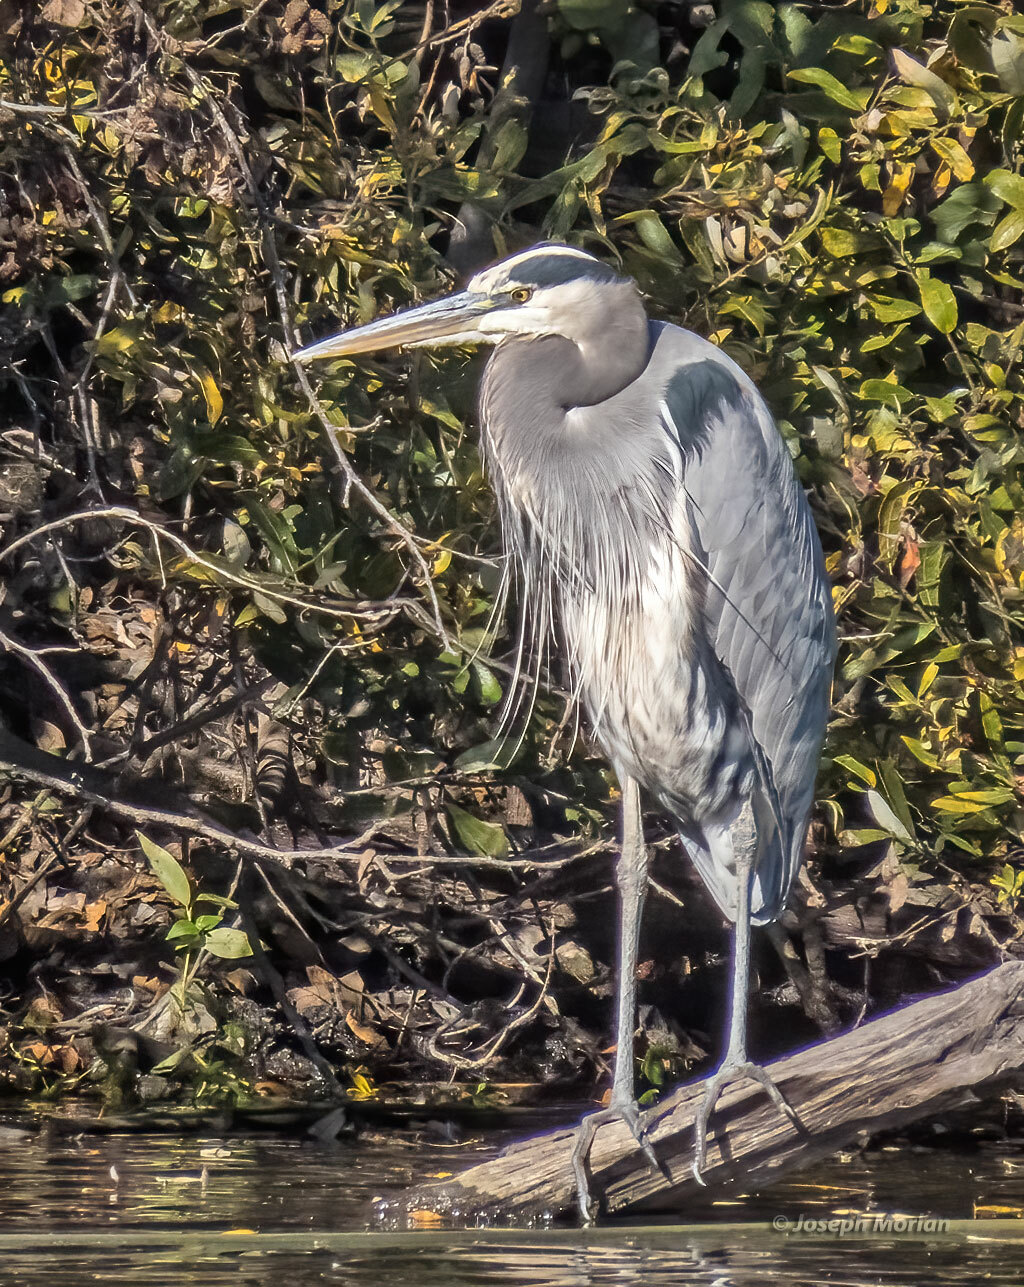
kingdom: Animalia
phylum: Chordata
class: Aves
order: Pelecaniformes
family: Ardeidae
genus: Ardea
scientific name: Ardea herodias
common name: Great blue heron
